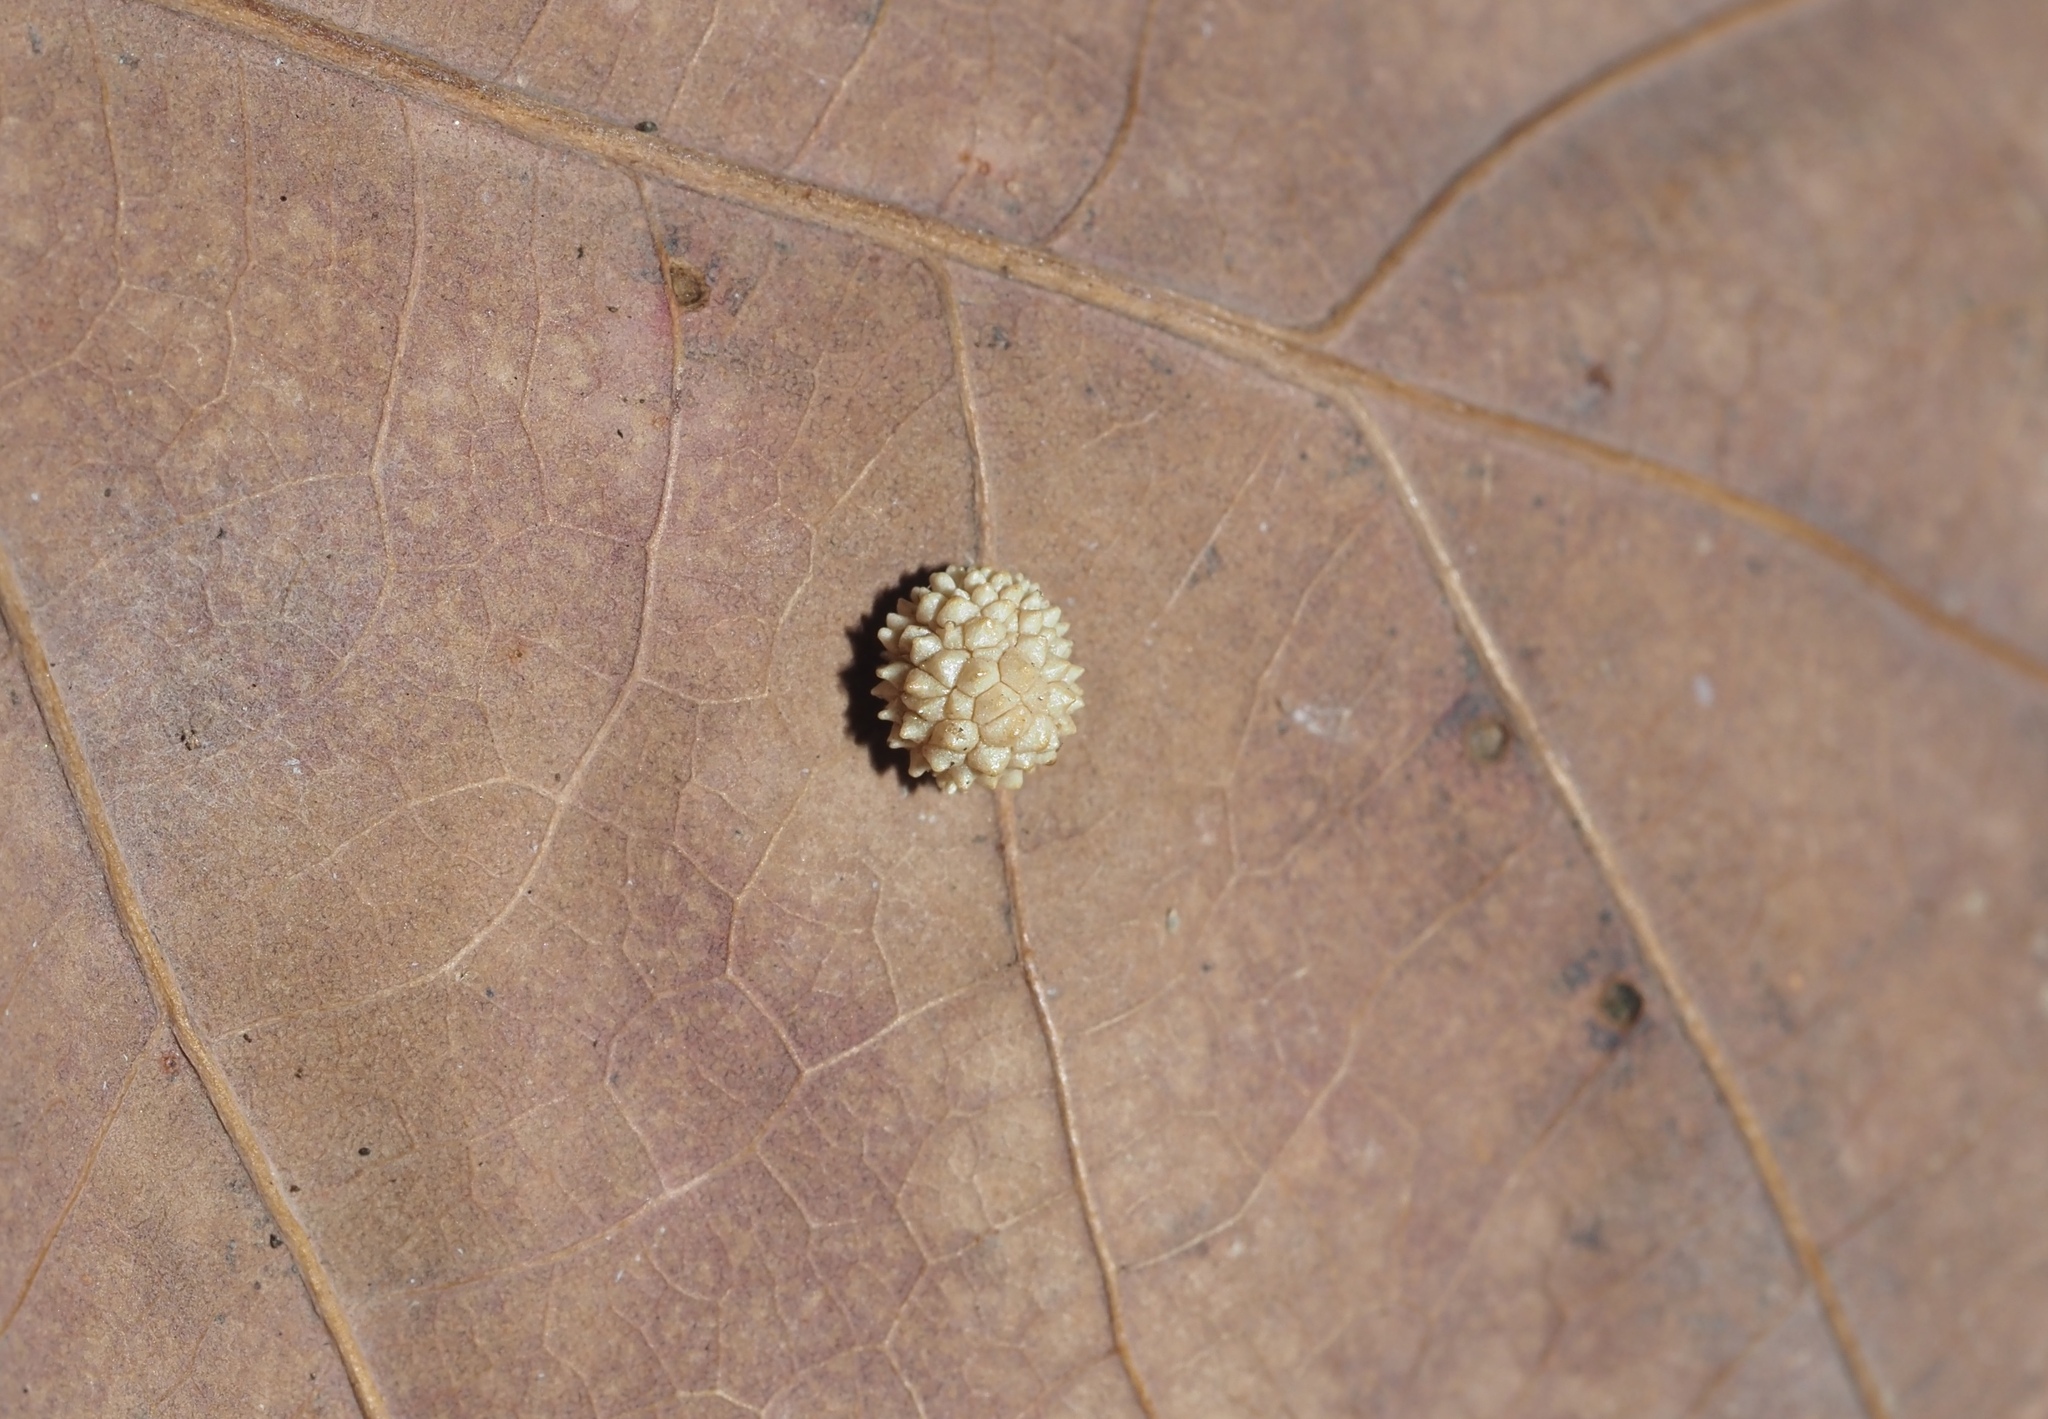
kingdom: Animalia
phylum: Arthropoda
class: Insecta
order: Hymenoptera
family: Cynipidae
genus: Acraspis
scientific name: Acraspis
